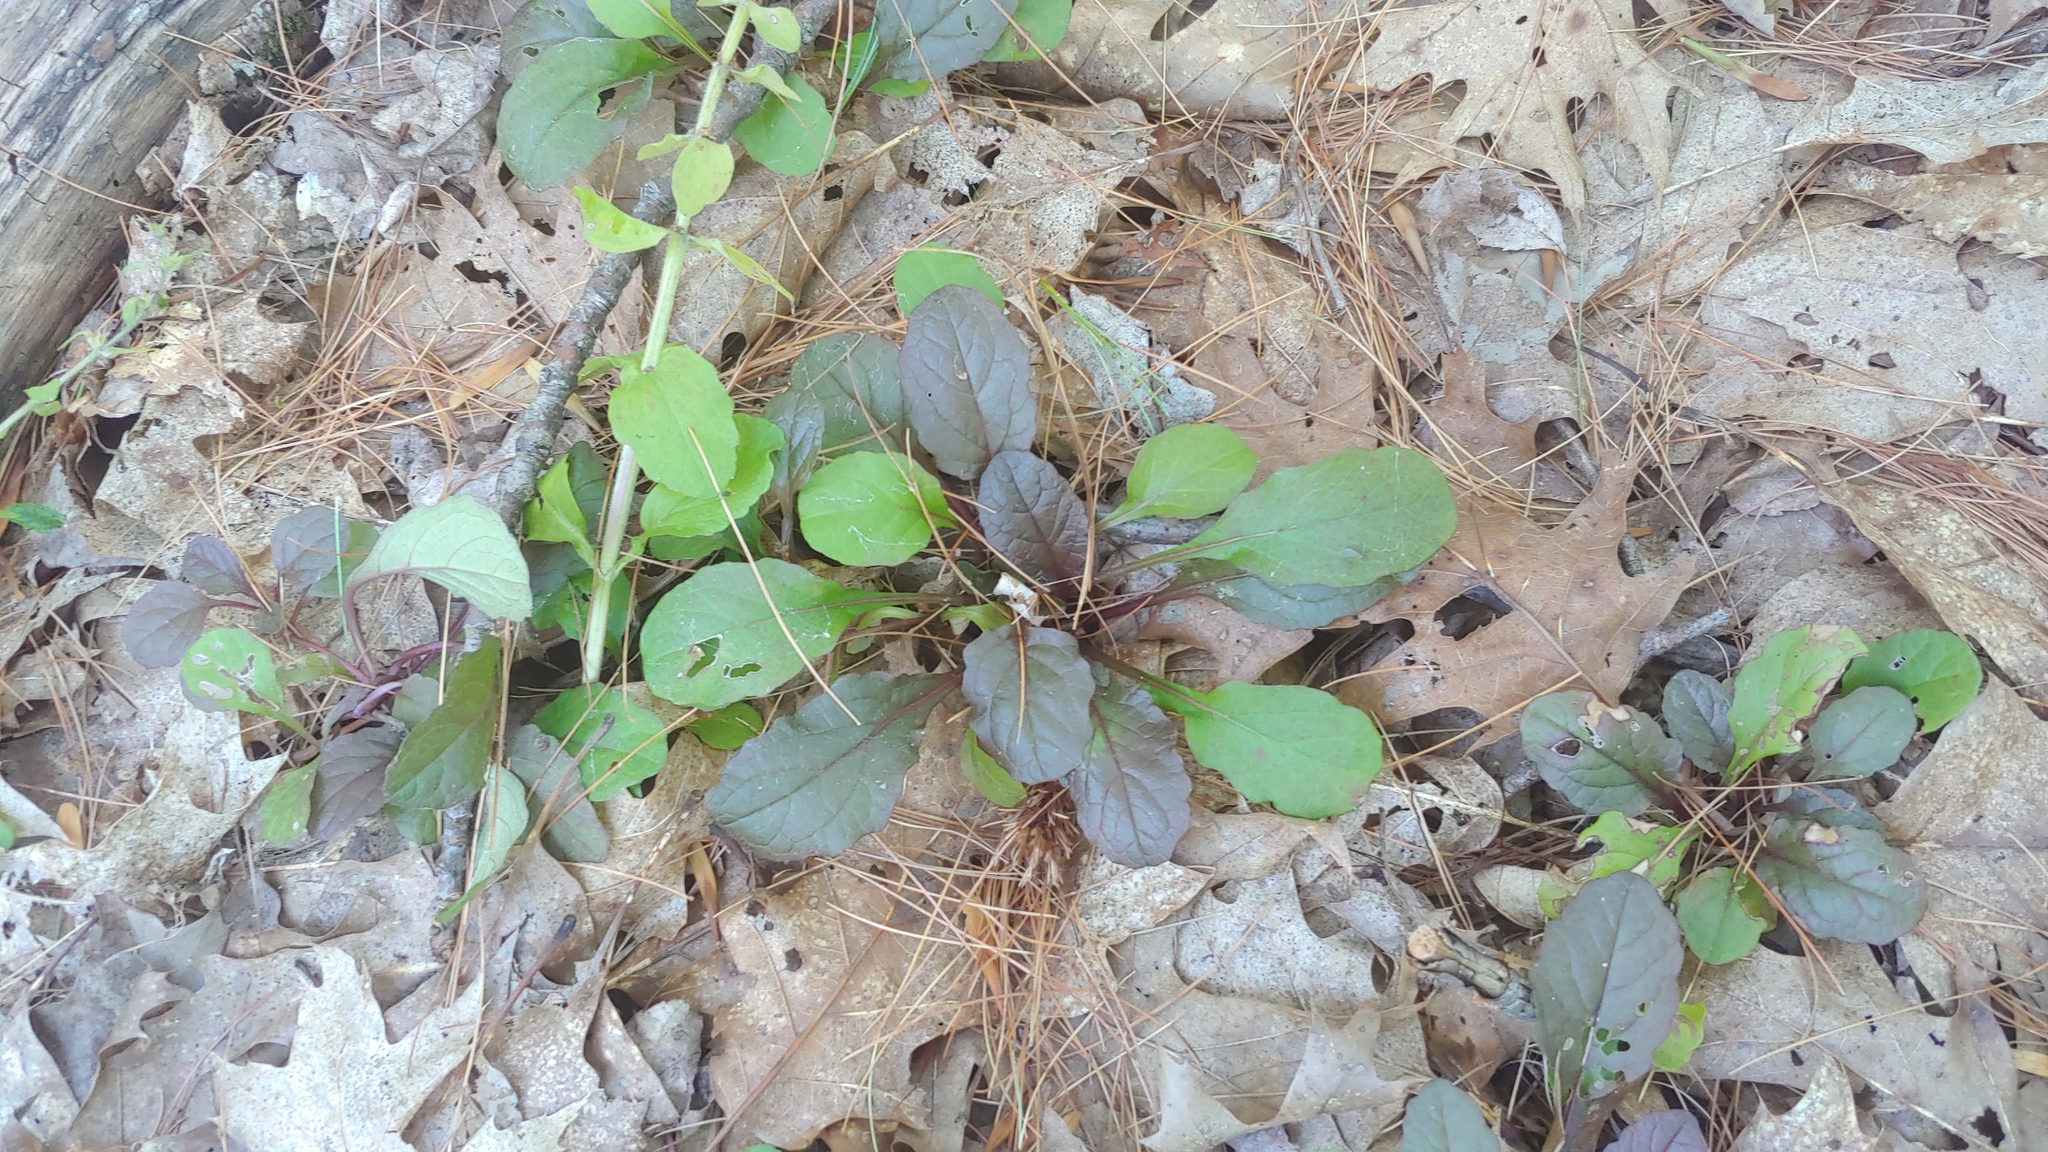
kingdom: Plantae
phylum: Tracheophyta
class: Magnoliopsida
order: Lamiales
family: Lamiaceae
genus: Ajuga
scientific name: Ajuga reptans
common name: Bugle
